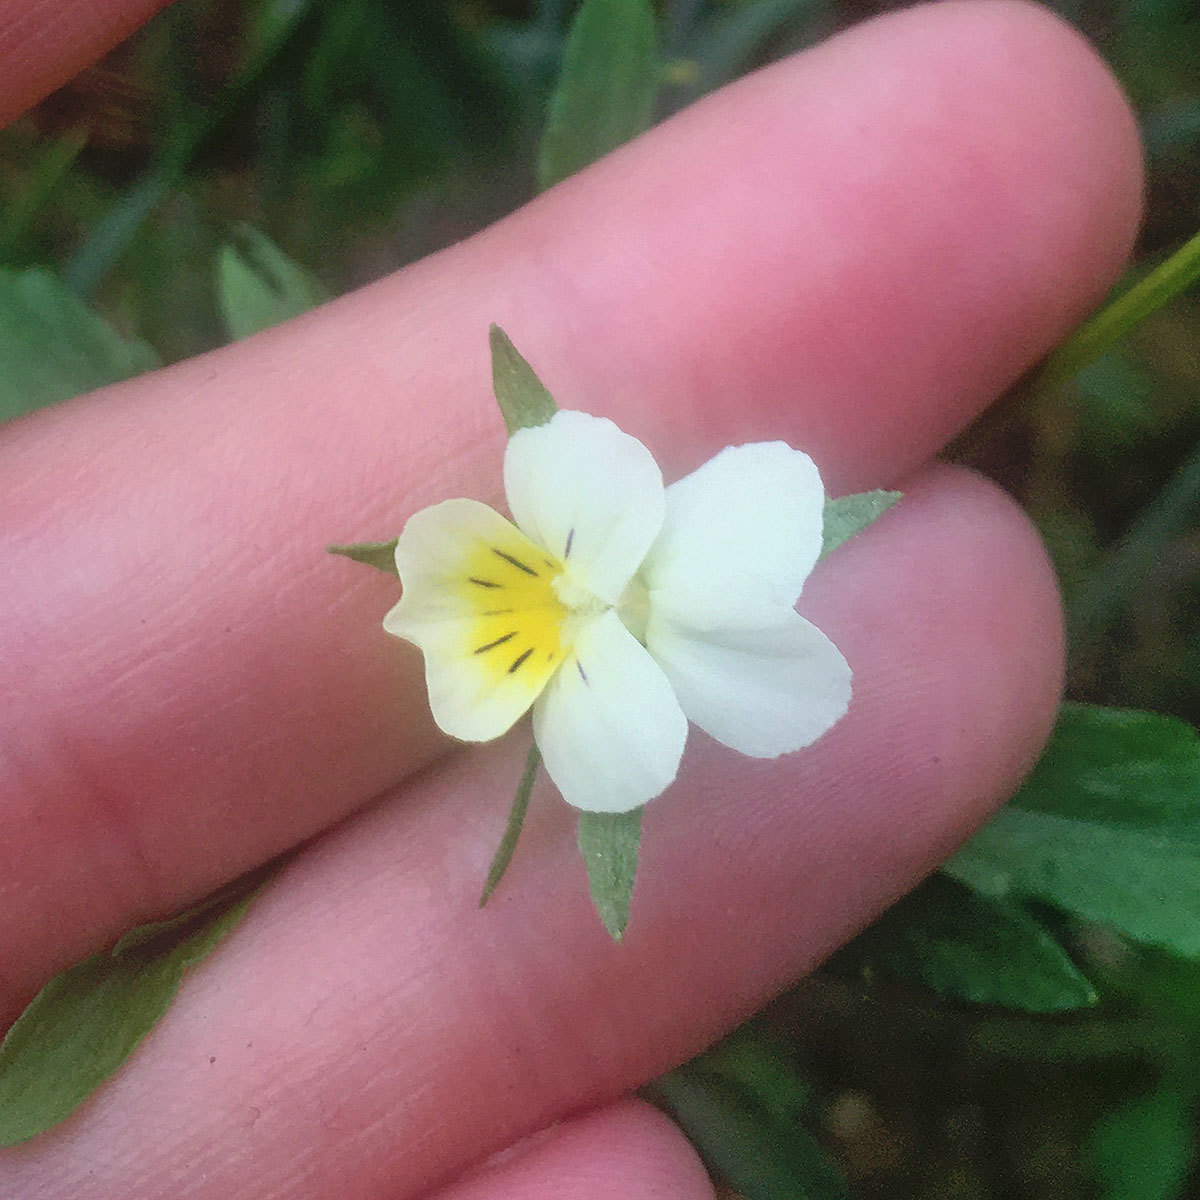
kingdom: Plantae
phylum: Tracheophyta
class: Magnoliopsida
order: Malpighiales
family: Violaceae
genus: Viola
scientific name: Viola arvensis
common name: Field pansy
